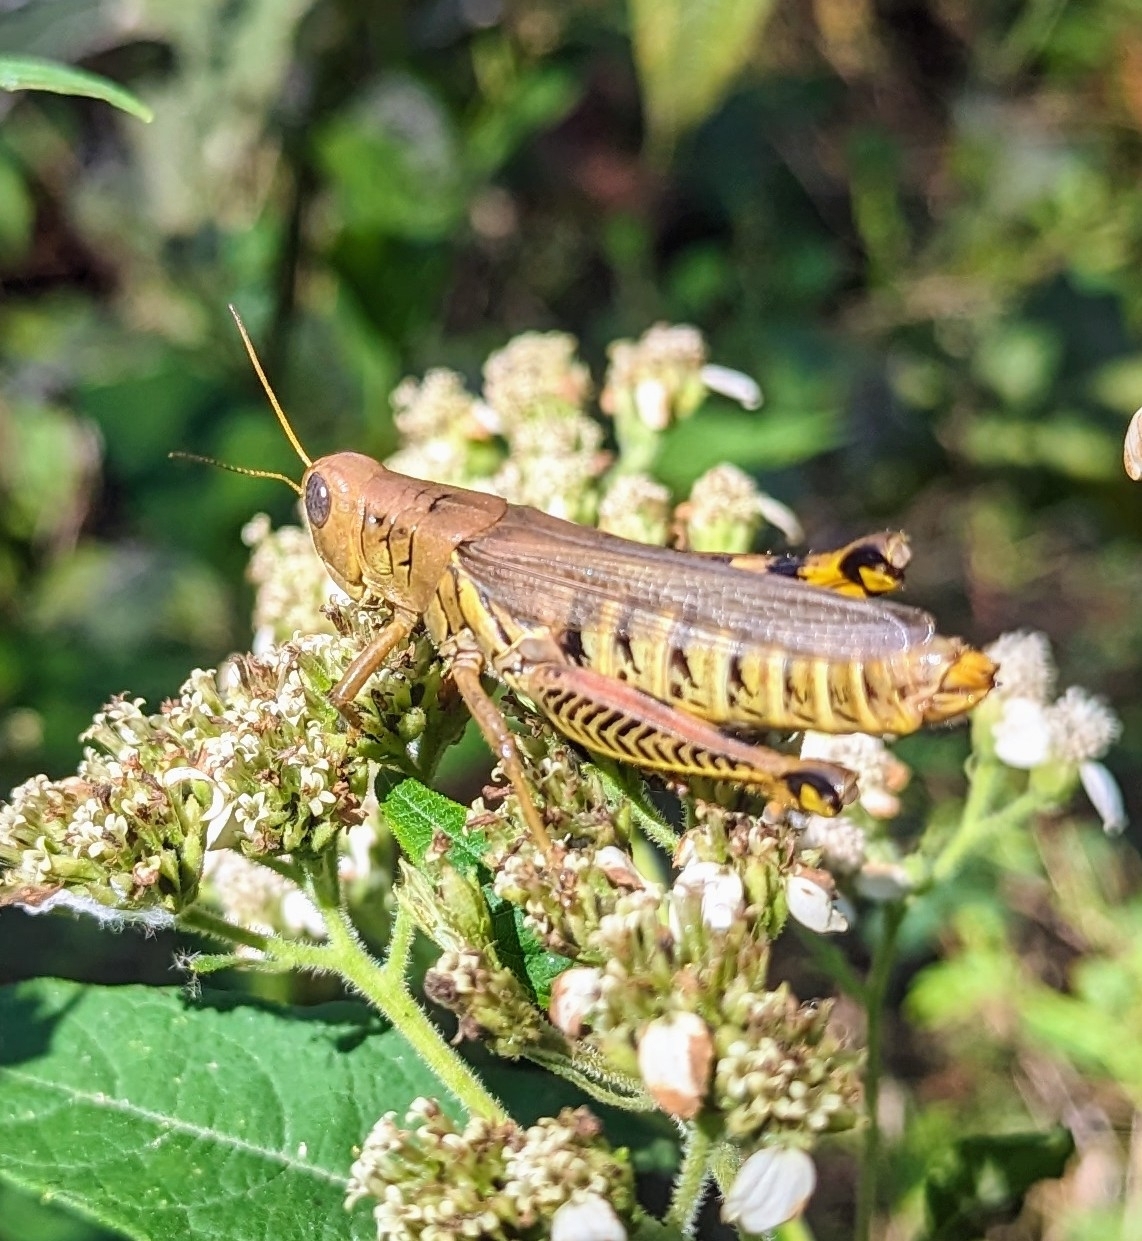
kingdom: Animalia
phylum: Arthropoda
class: Insecta
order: Orthoptera
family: Acrididae
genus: Melanoplus
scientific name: Melanoplus differentialis
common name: Differential grasshopper
